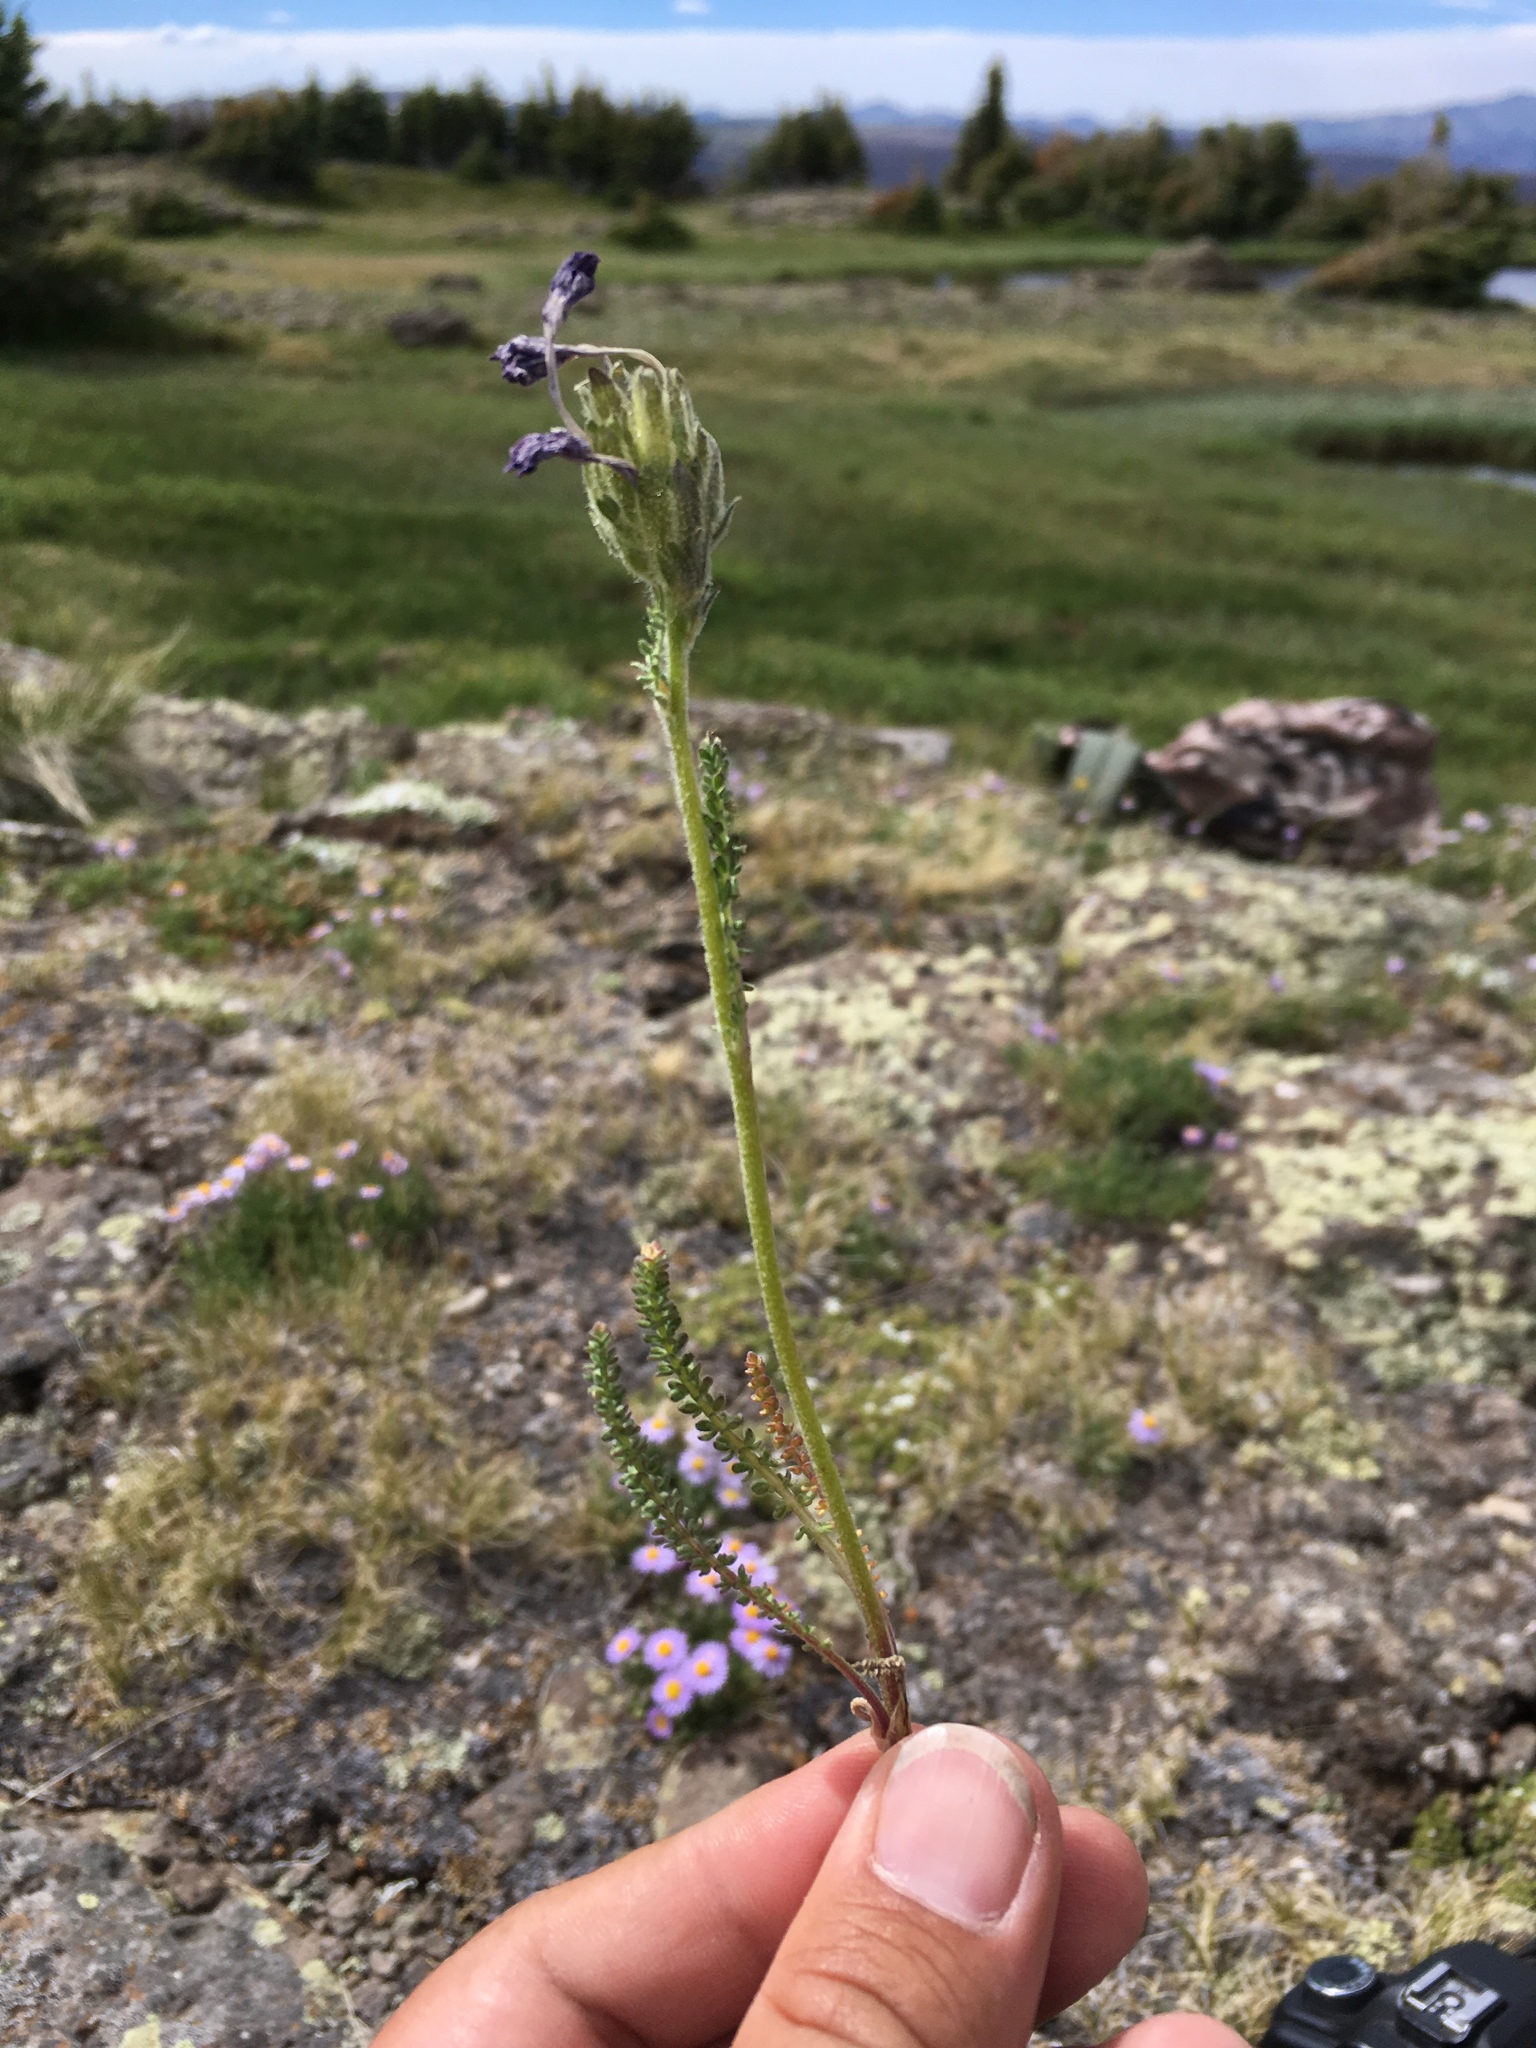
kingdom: Plantae
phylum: Tracheophyta
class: Magnoliopsida
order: Ericales
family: Polemoniaceae
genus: Polemonium
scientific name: Polemonium viscosum
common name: Skunk jacob's-ladder
